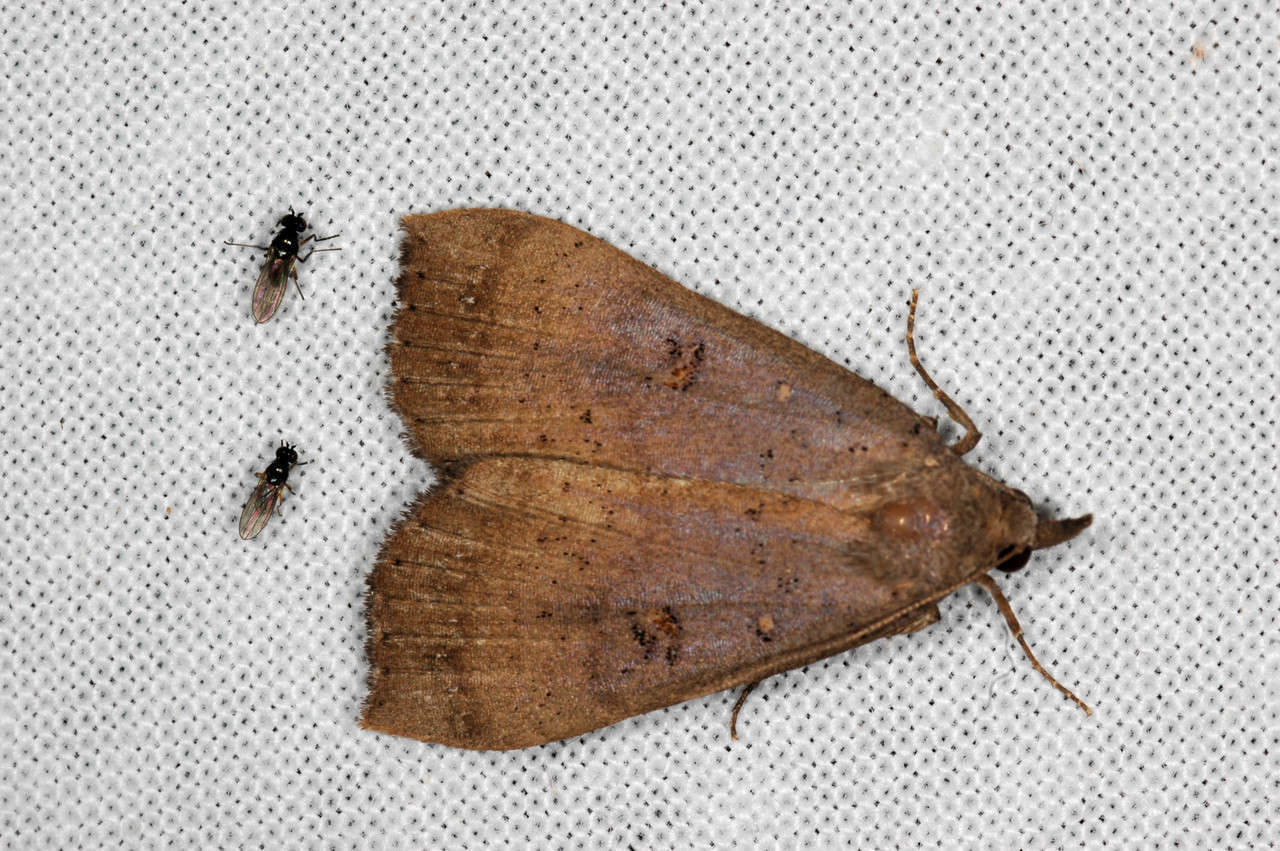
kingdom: Animalia
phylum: Arthropoda
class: Insecta
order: Lepidoptera
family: Erebidae
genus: Rhapsa
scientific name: Rhapsa suscitatalis
